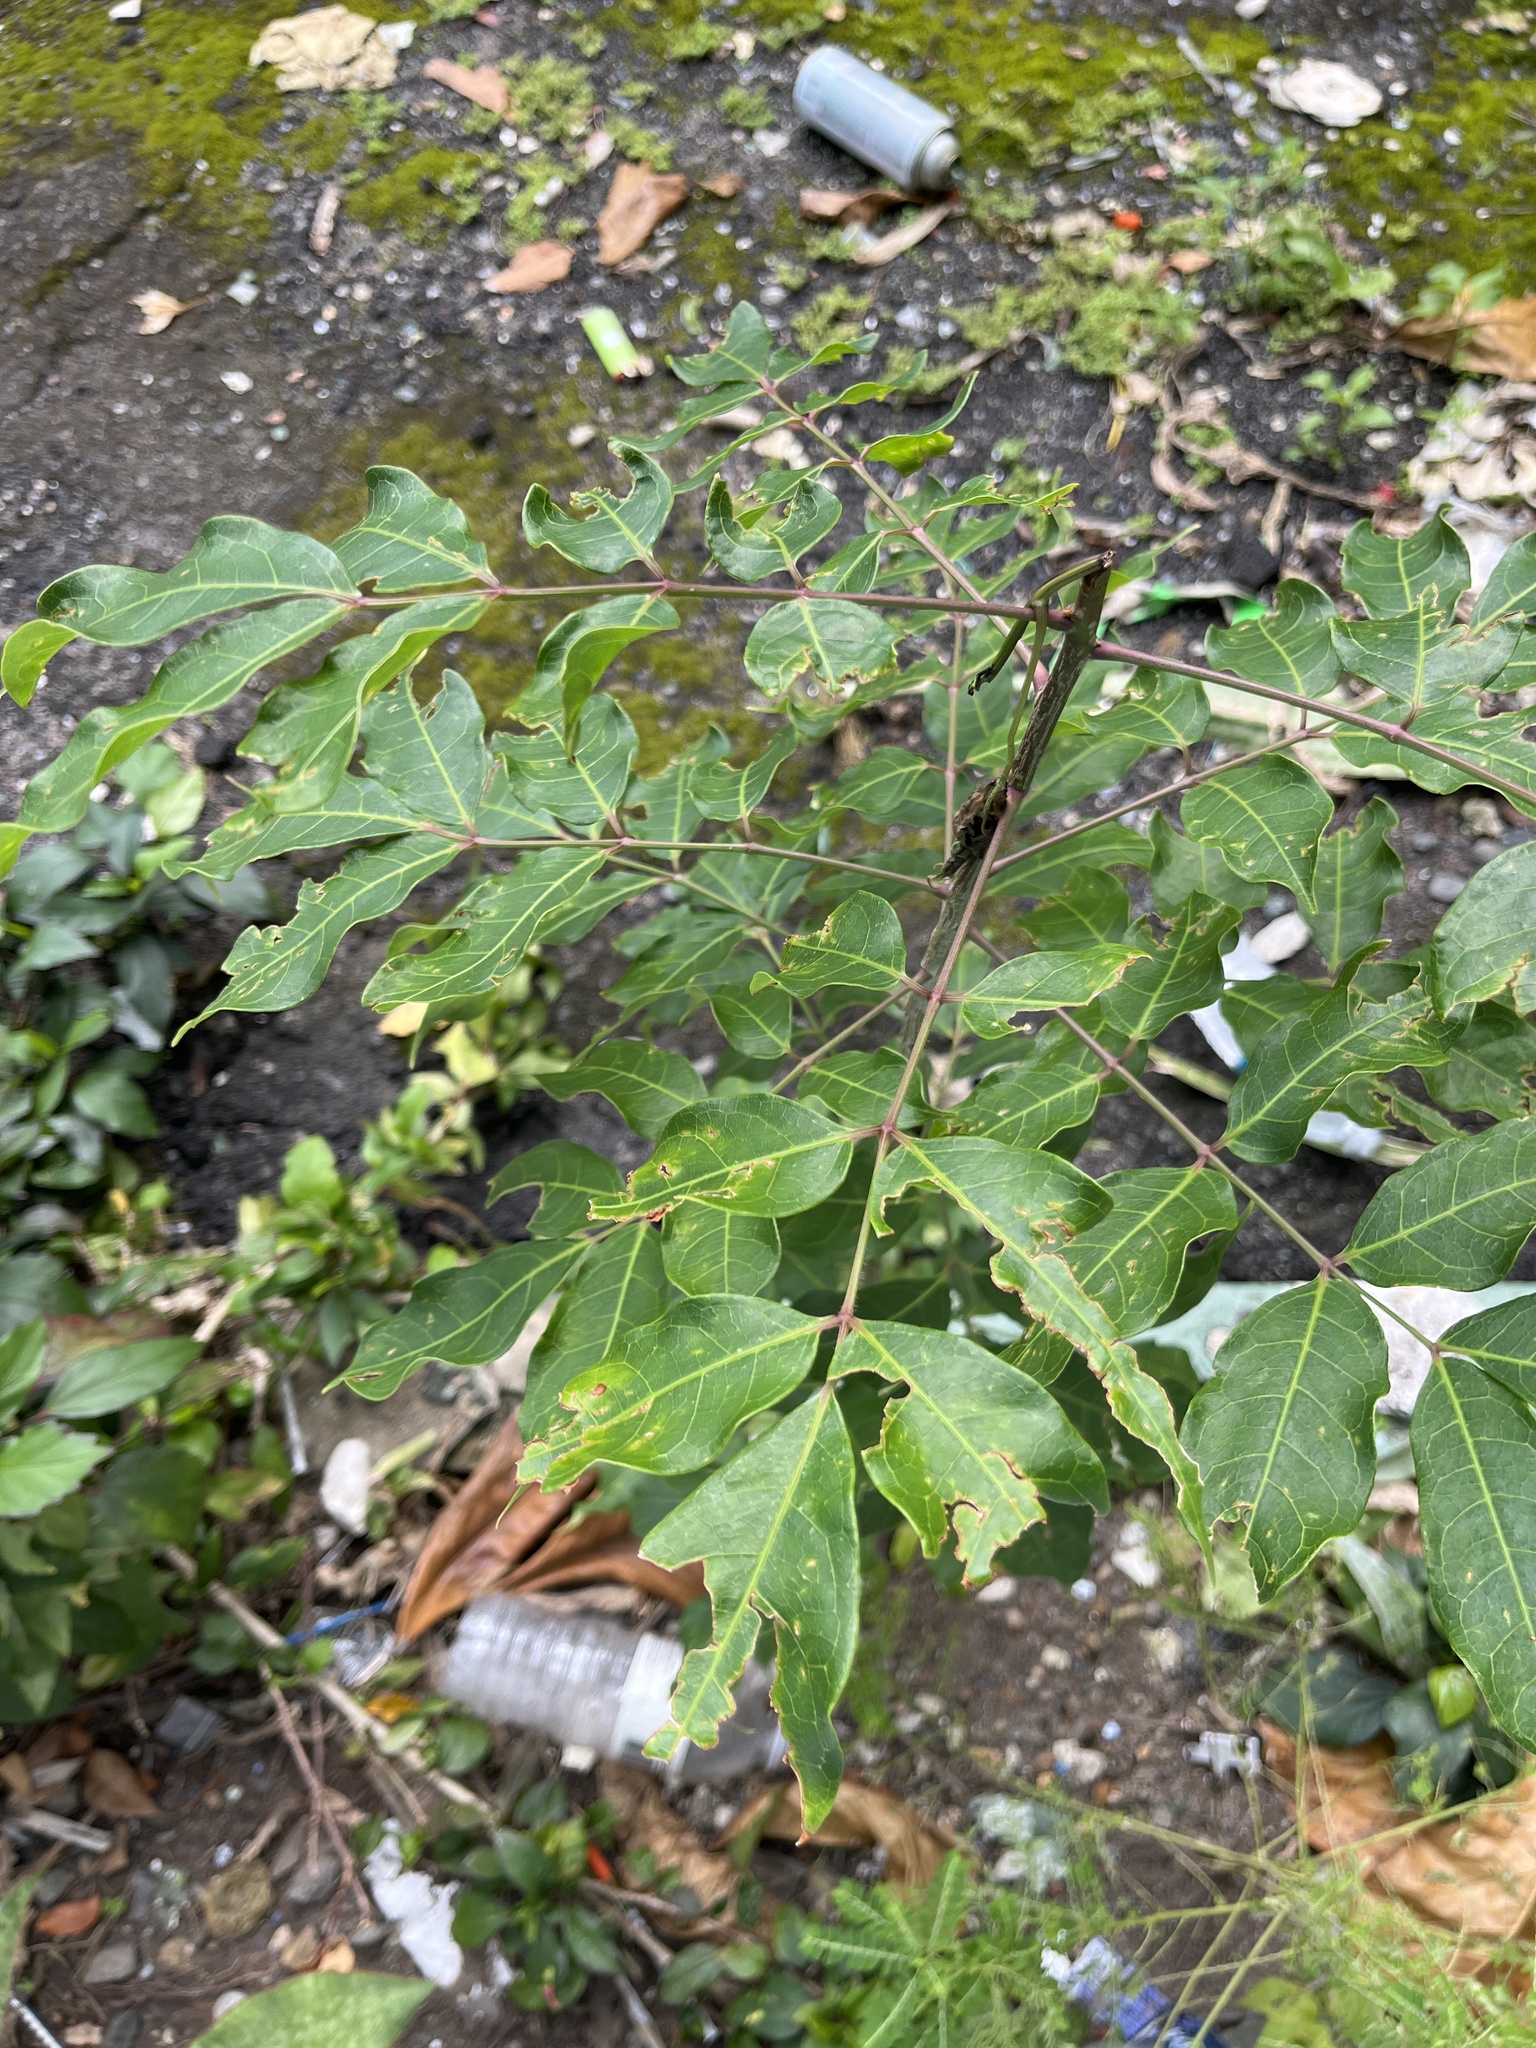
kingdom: Plantae
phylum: Tracheophyta
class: Magnoliopsida
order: Sapindales
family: Burseraceae
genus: Bursera
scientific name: Bursera simaruba
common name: Turpentine tree
